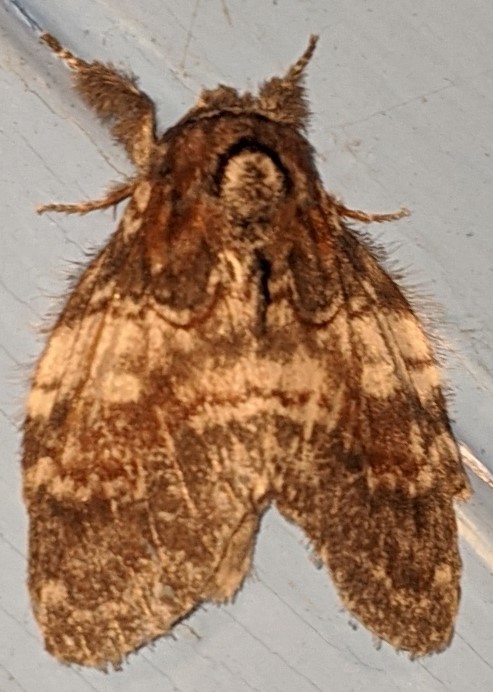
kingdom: Animalia
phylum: Arthropoda
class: Insecta
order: Lepidoptera
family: Notodontidae
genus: Peridea
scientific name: Peridea ferruginea
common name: Chocolate prominent
